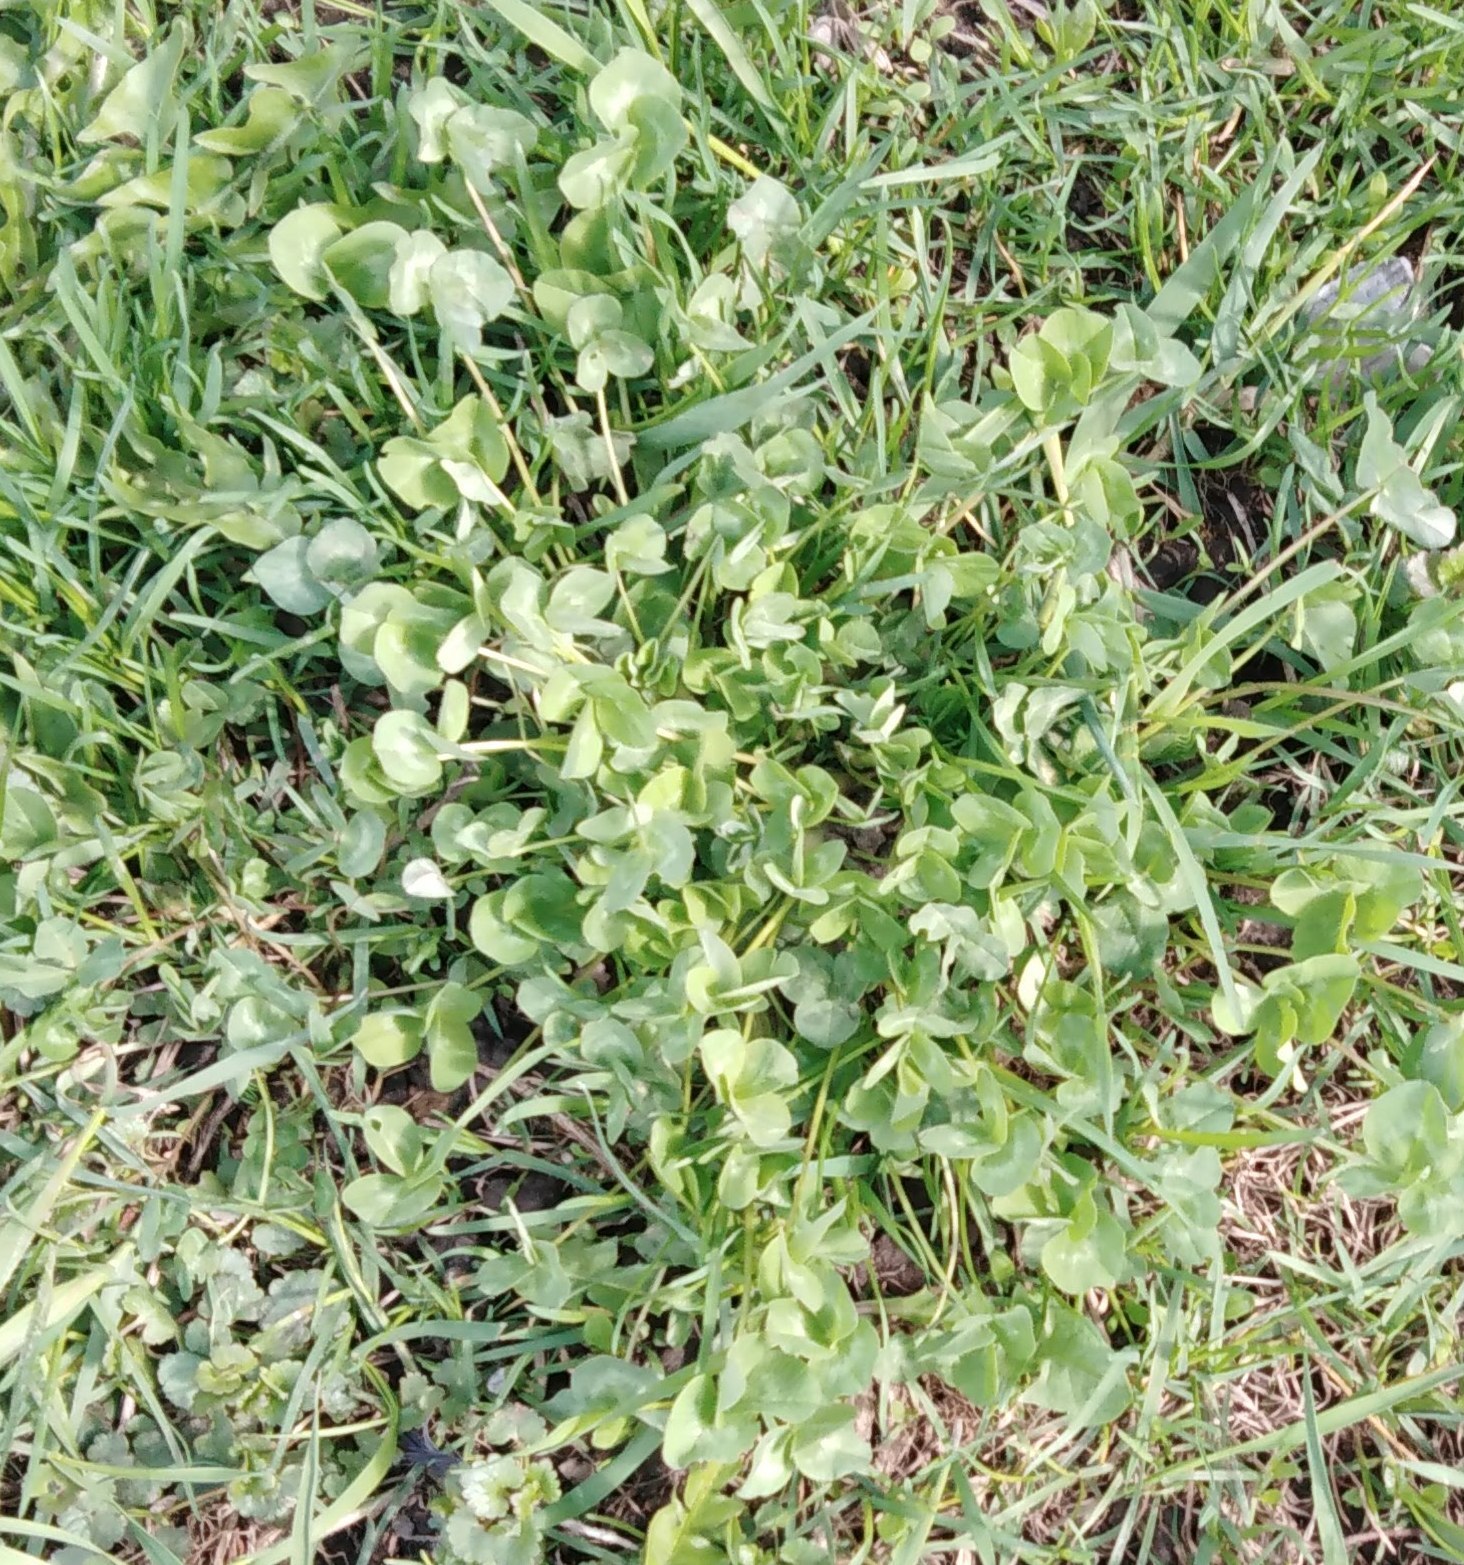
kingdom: Plantae
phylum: Tracheophyta
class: Magnoliopsida
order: Fabales
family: Fabaceae
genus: Trifolium
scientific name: Trifolium pratense
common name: Red clover
